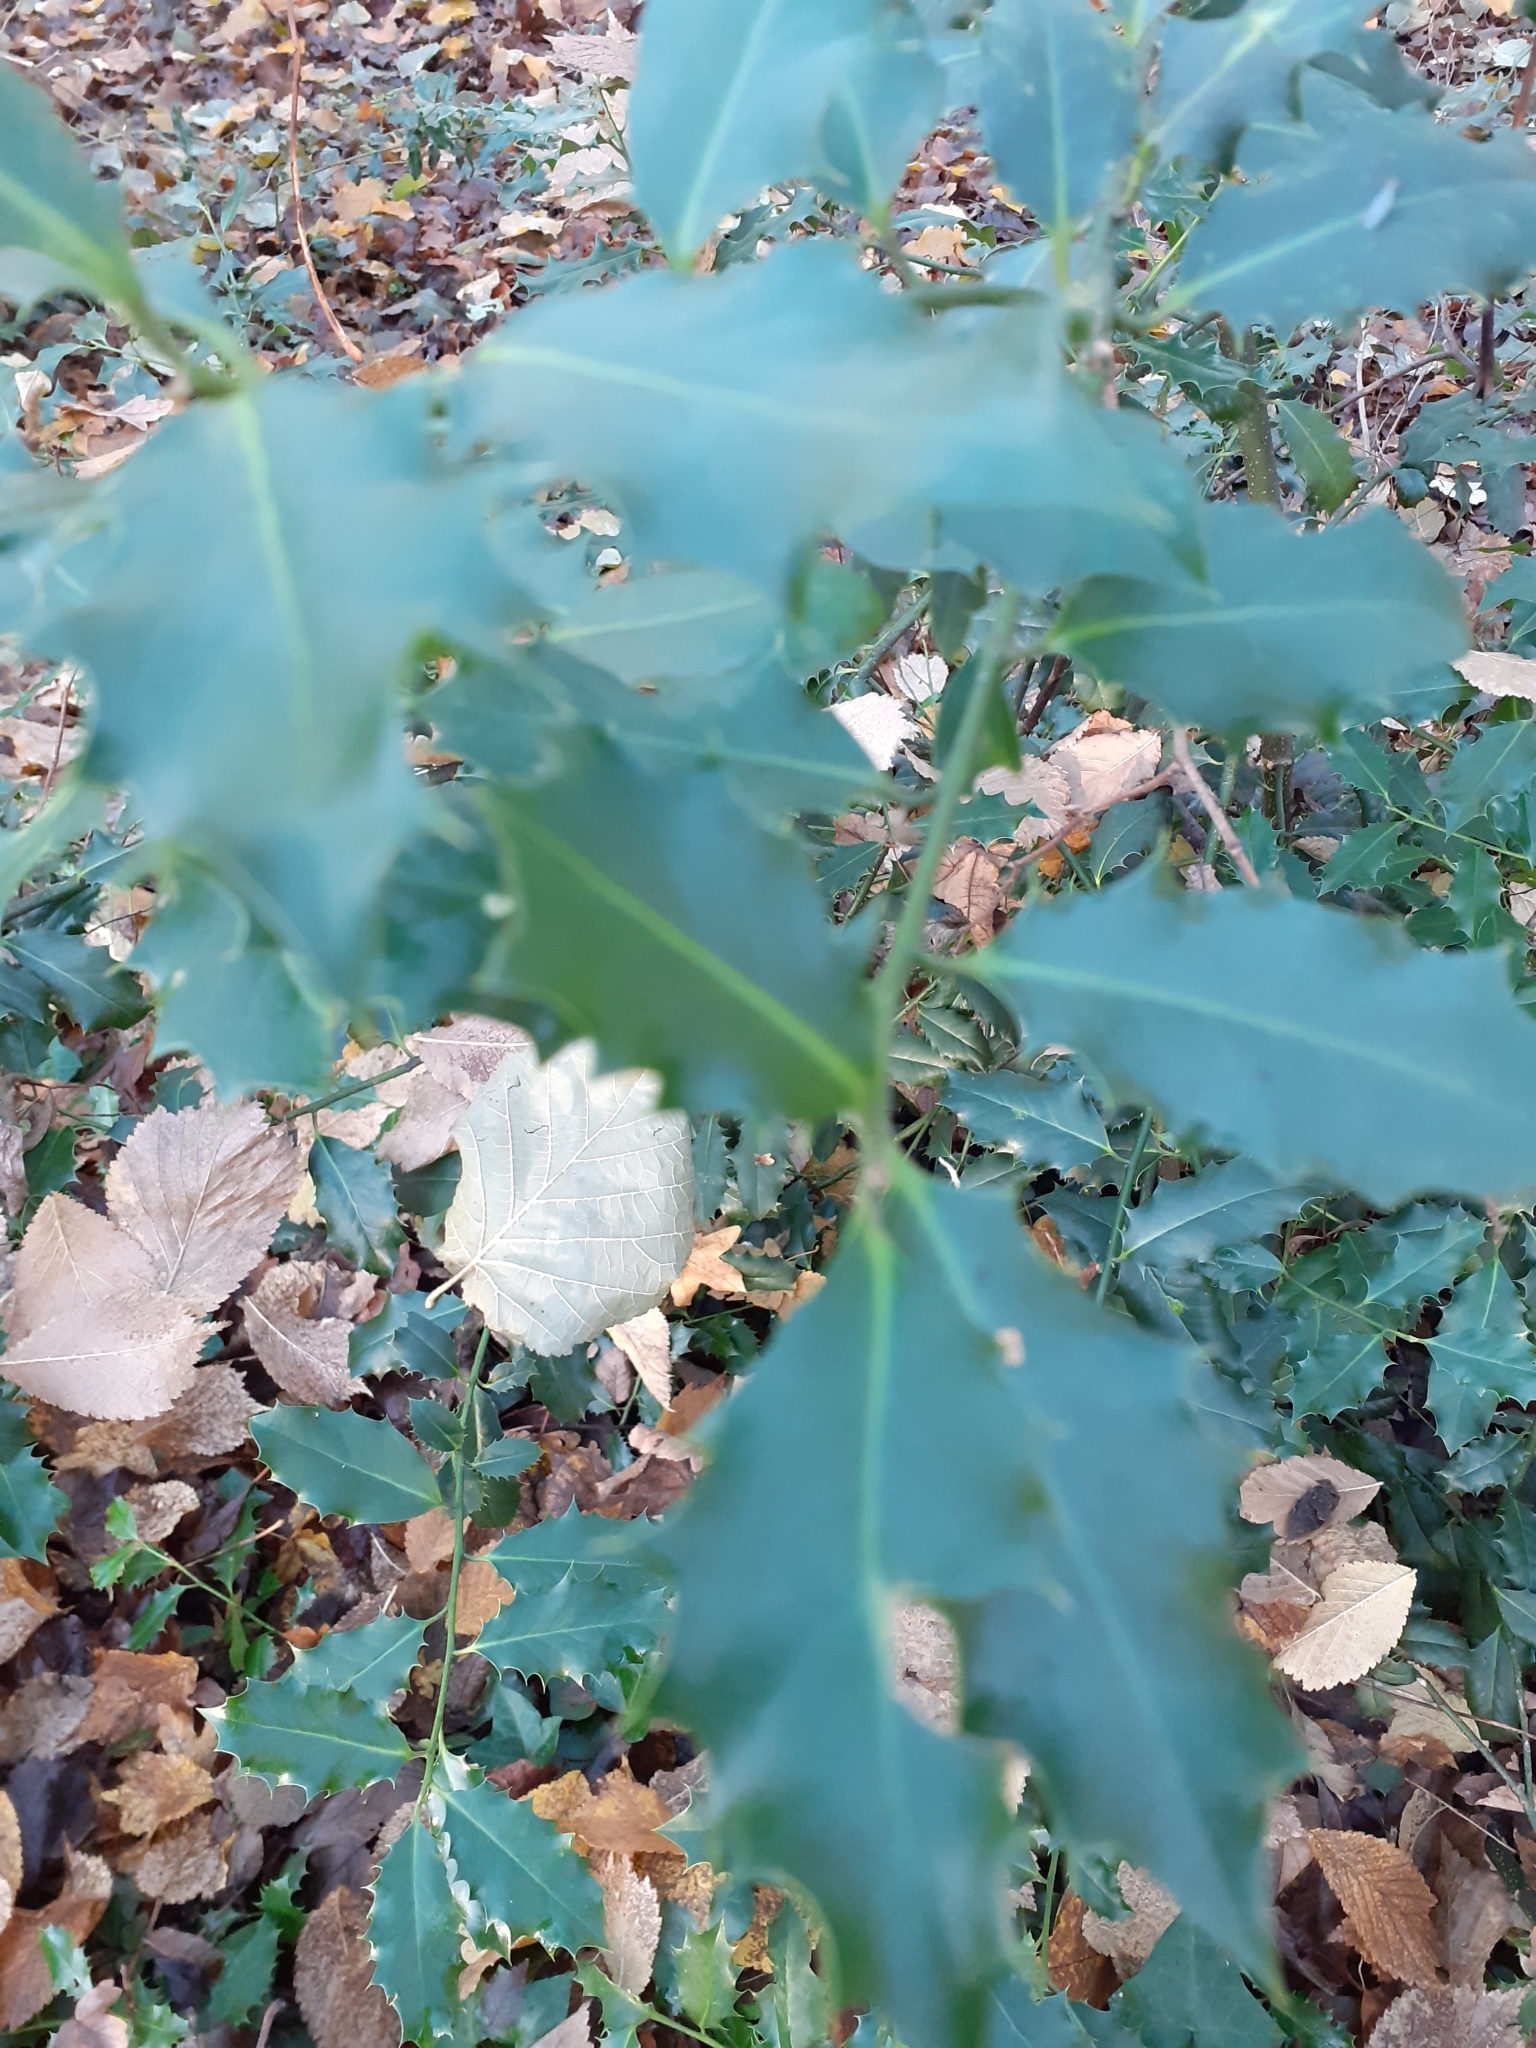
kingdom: Plantae
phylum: Tracheophyta
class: Magnoliopsida
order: Aquifoliales
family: Aquifoliaceae
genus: Ilex
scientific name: Ilex aquifolium
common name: English holly
